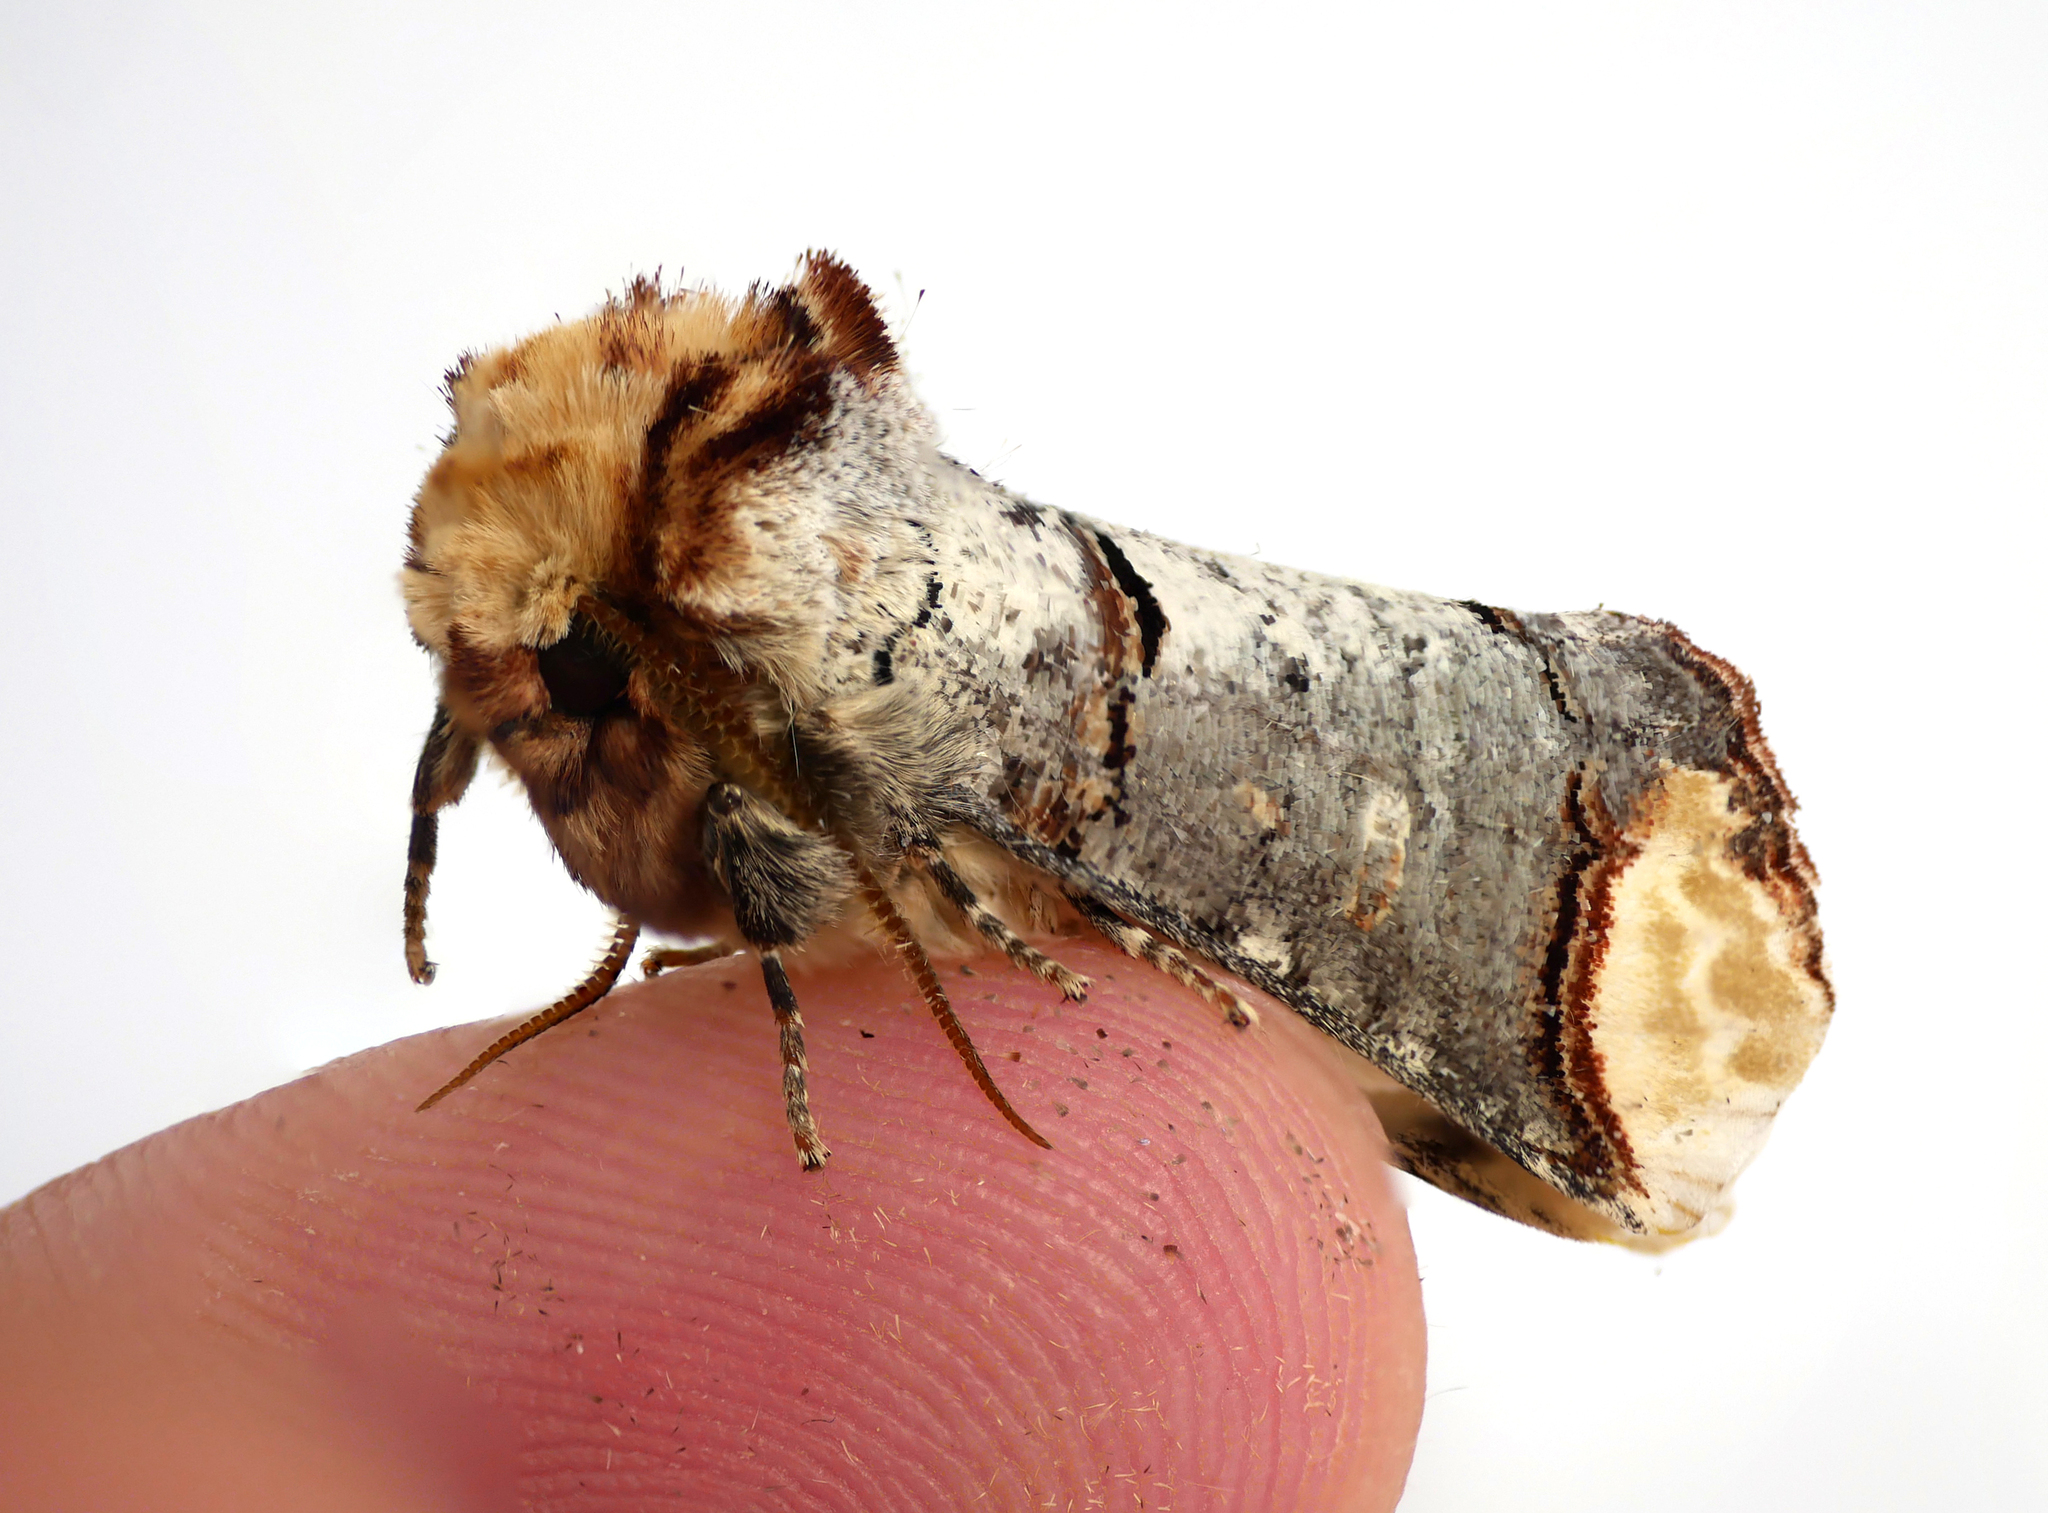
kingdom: Animalia
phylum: Arthropoda
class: Insecta
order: Lepidoptera
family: Notodontidae
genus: Phalera
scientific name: Phalera bucephala
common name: Buff-tip
